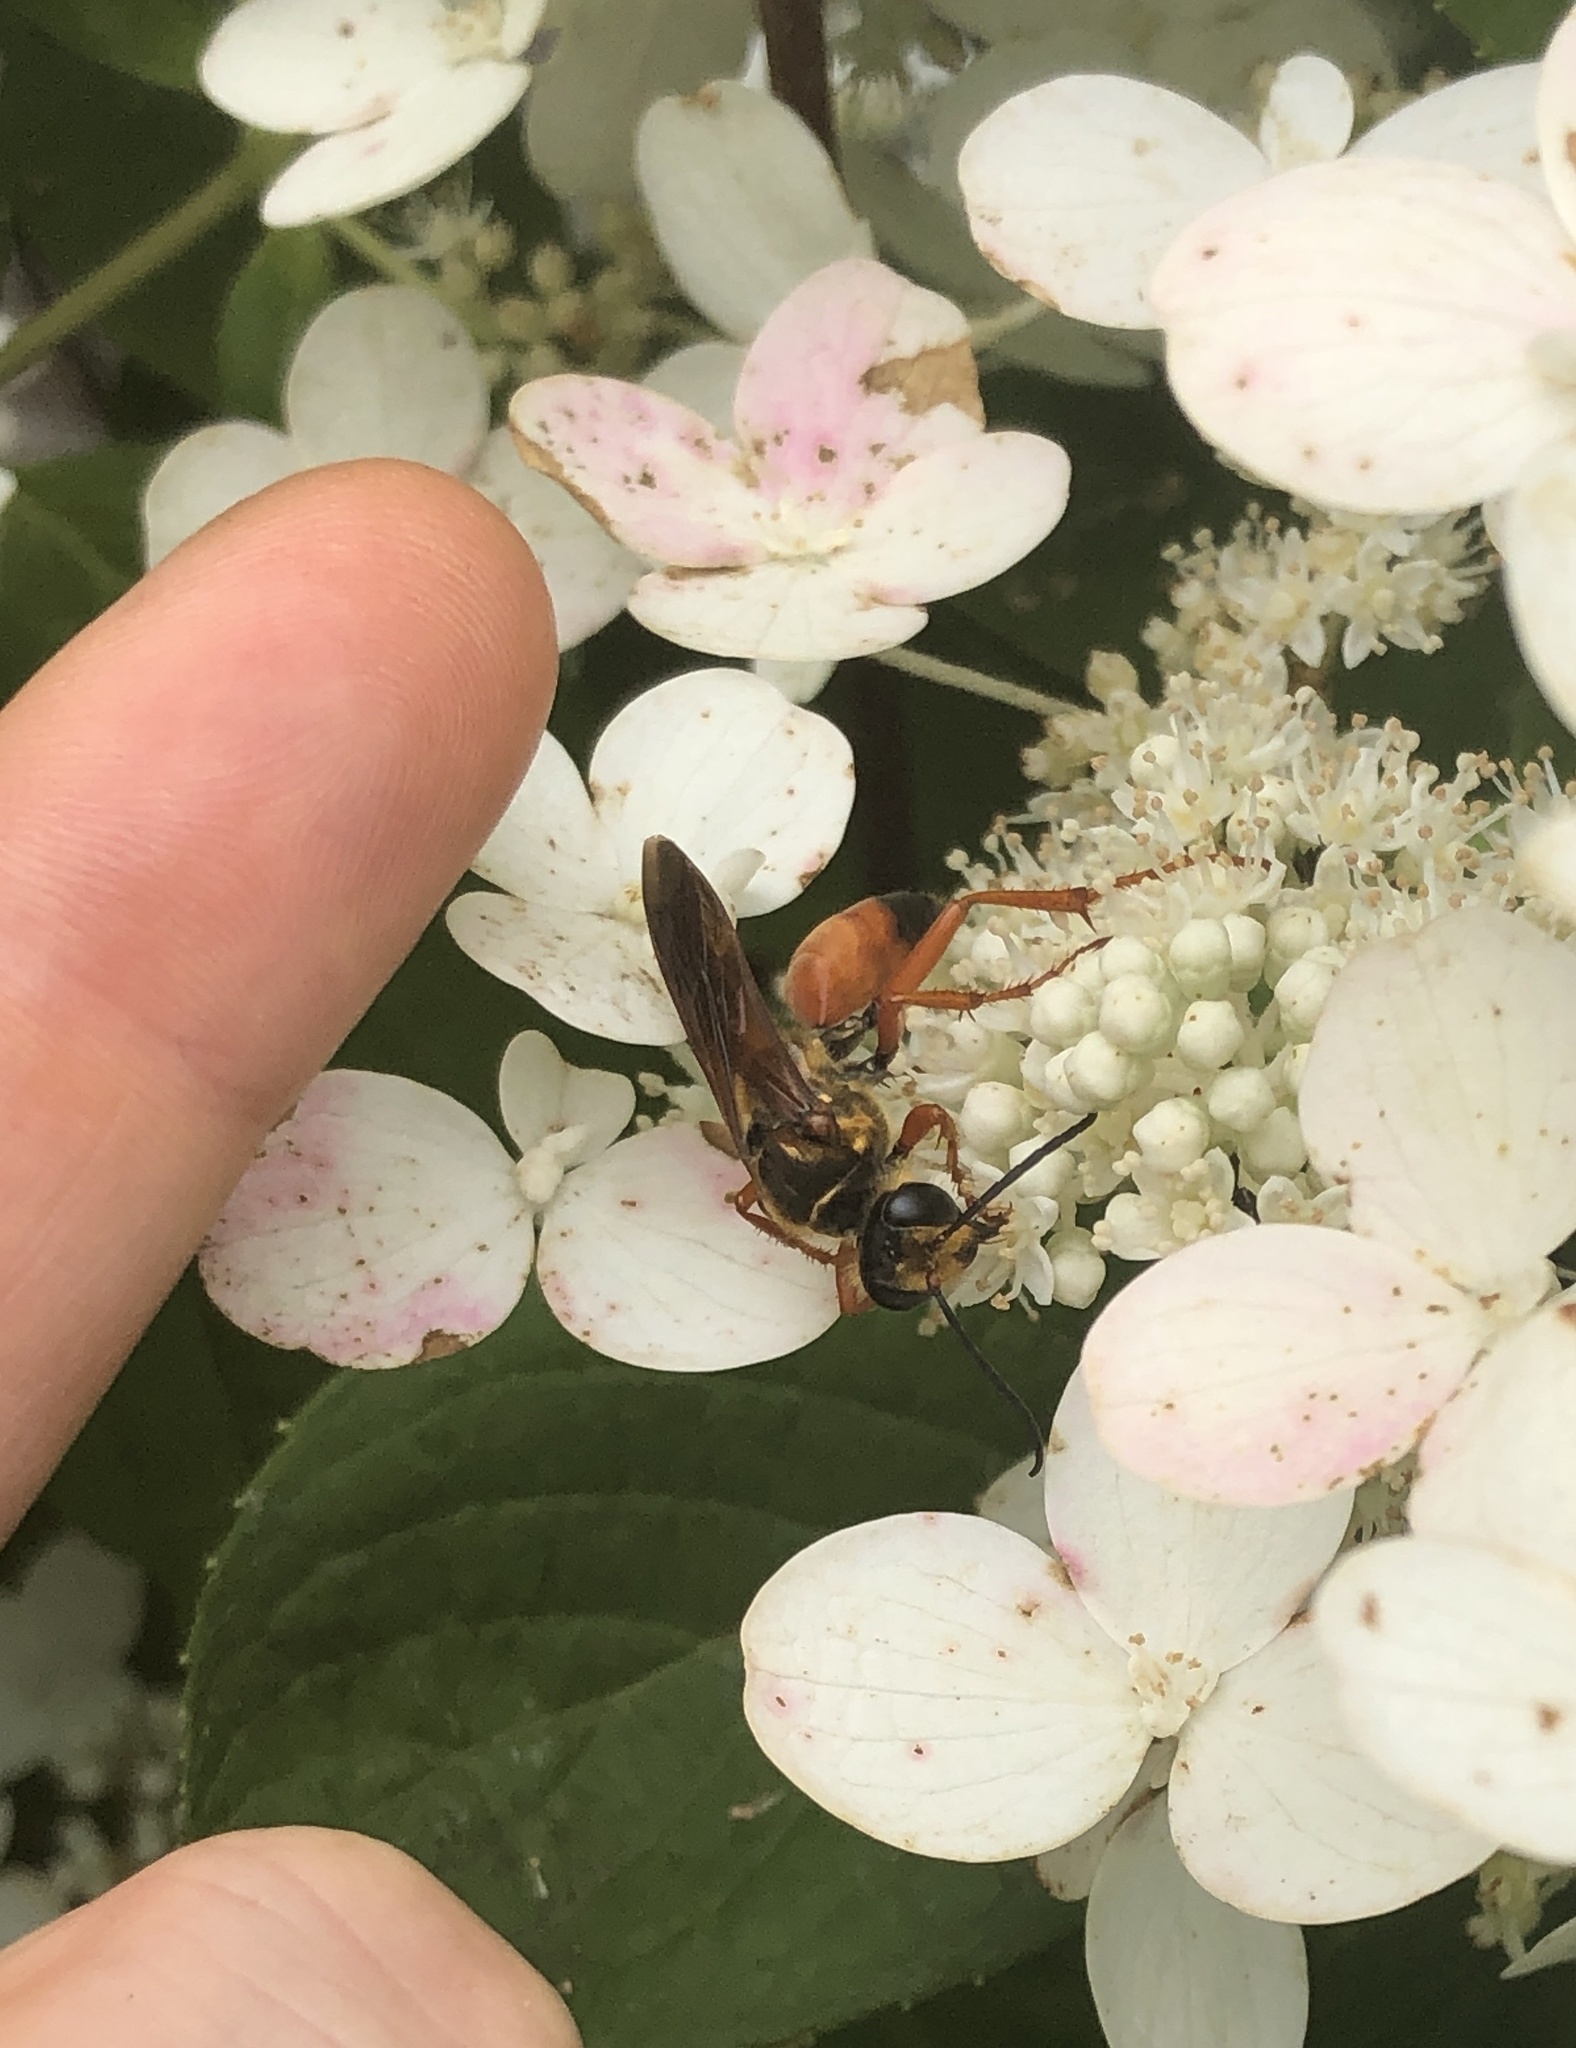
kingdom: Animalia
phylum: Arthropoda
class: Insecta
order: Hymenoptera
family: Sphecidae
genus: Sphex
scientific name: Sphex ichneumoneus
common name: Great golden digger wasp
